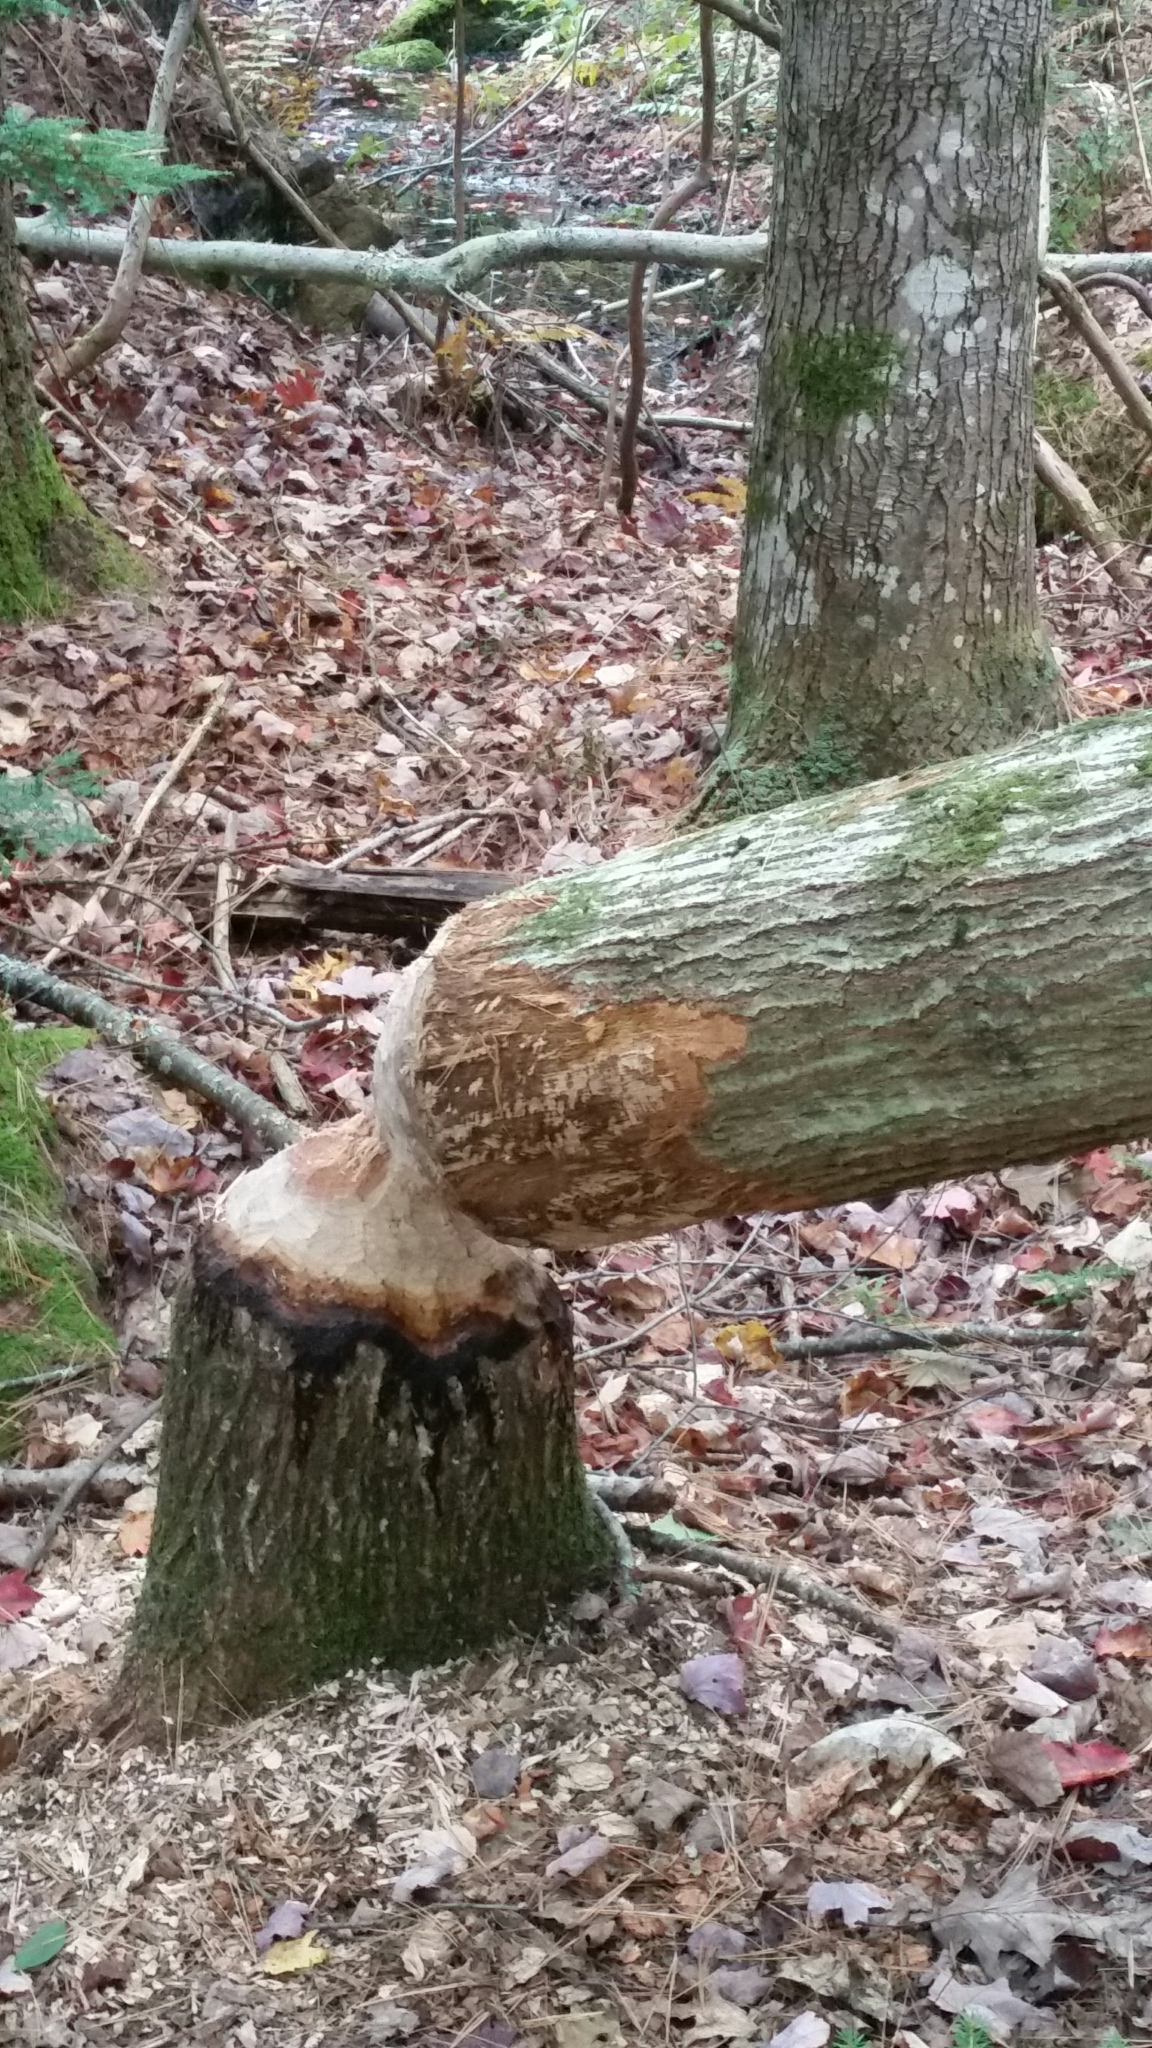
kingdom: Animalia
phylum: Chordata
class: Mammalia
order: Rodentia
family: Castoridae
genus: Castor
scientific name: Castor canadensis
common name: American beaver
